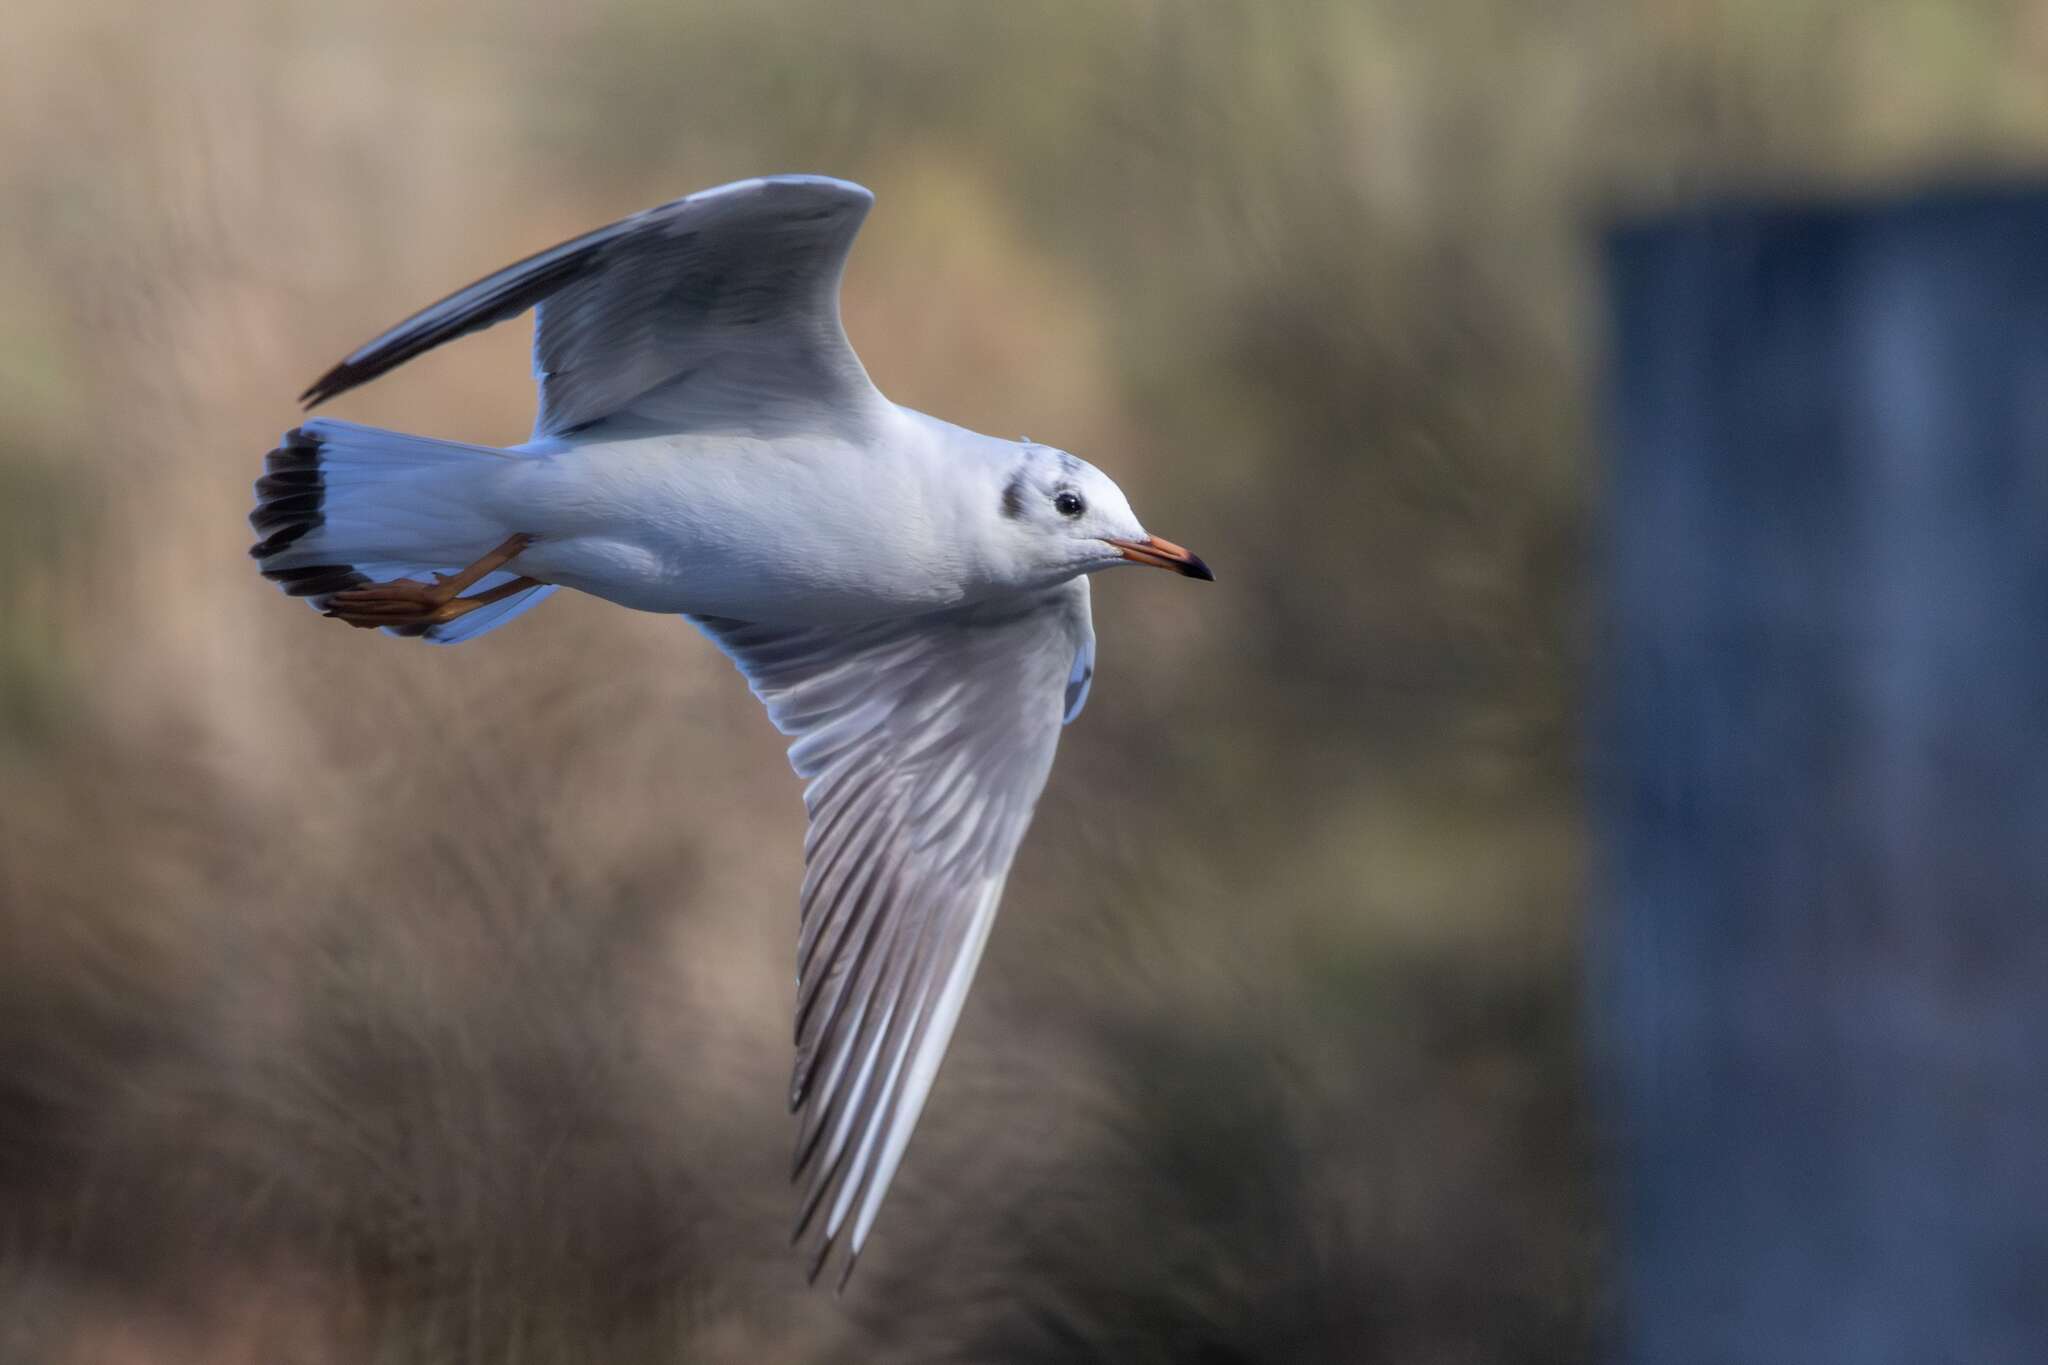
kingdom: Animalia
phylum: Chordata
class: Aves
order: Charadriiformes
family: Laridae
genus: Chroicocephalus
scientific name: Chroicocephalus ridibundus
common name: Black-headed gull
